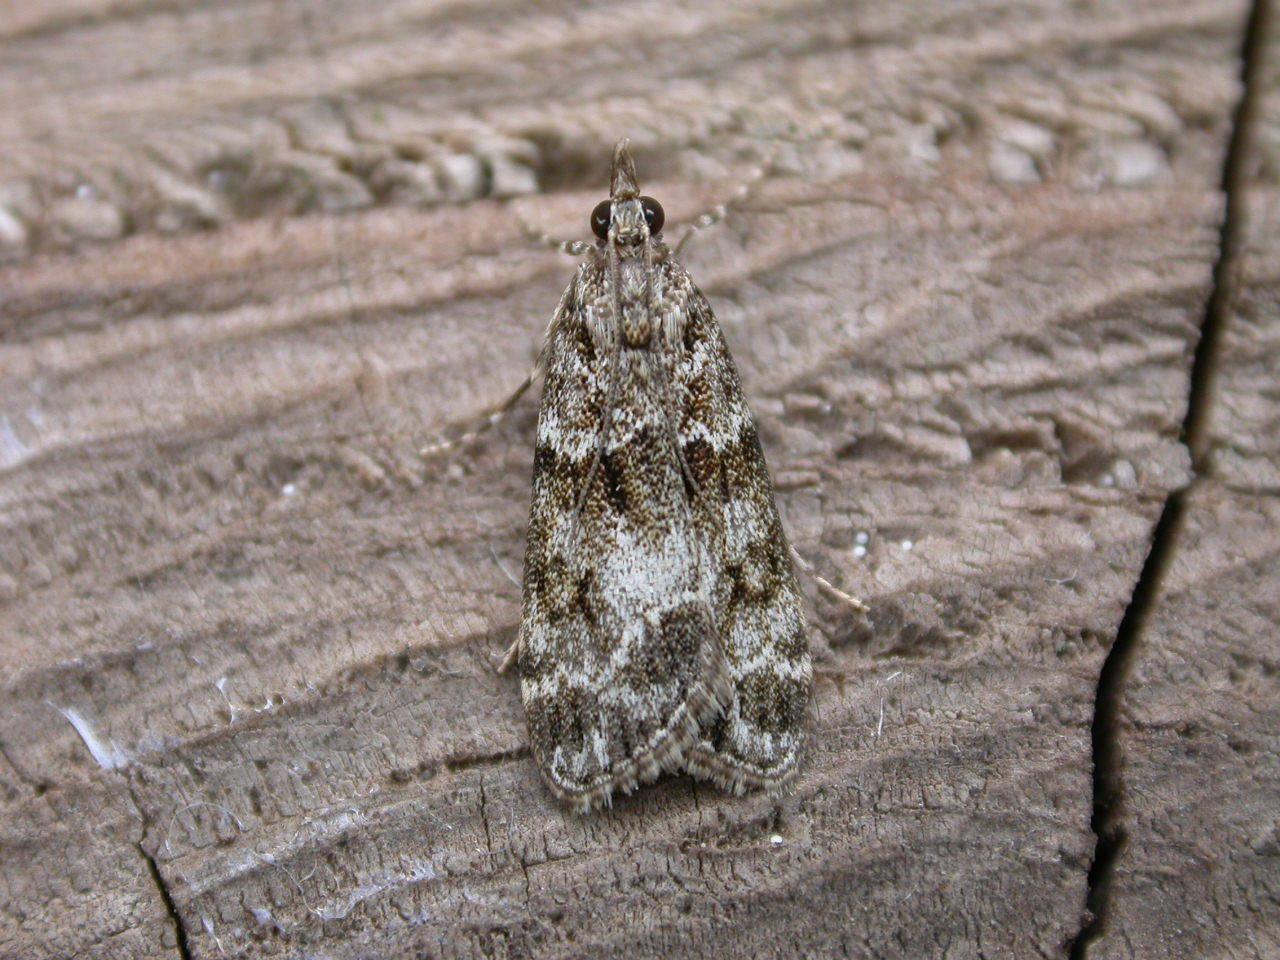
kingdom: Animalia
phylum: Arthropoda
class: Insecta
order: Lepidoptera
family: Crambidae
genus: Eudonia
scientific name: Eudonia mercurella
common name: Small grey
